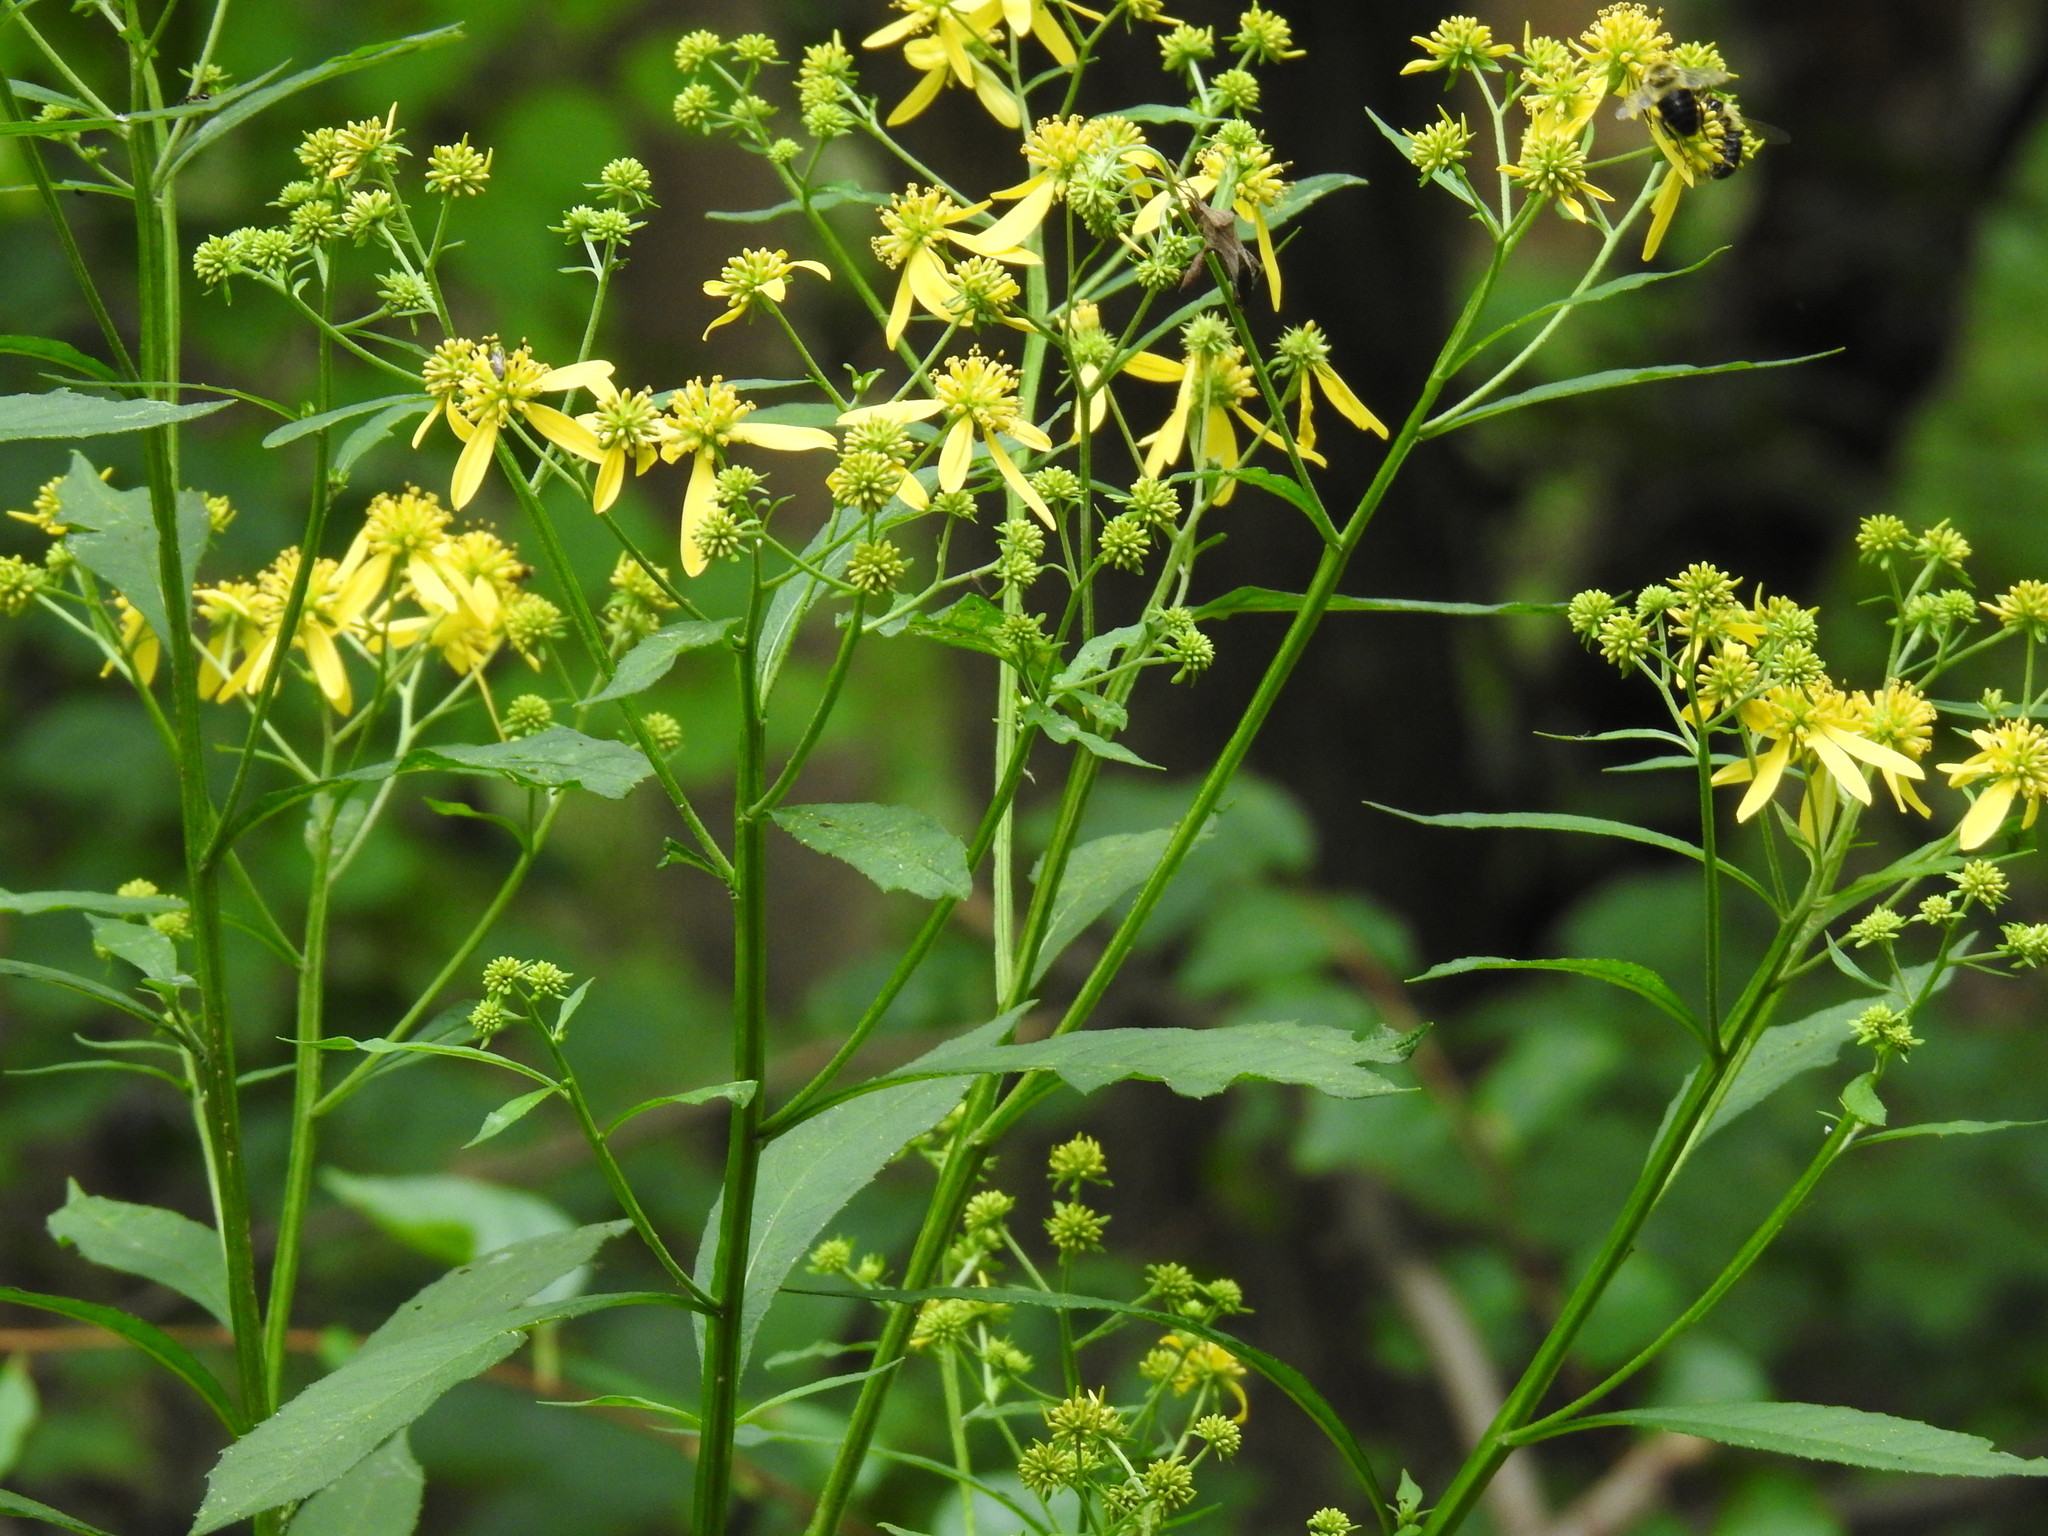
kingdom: Plantae
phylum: Tracheophyta
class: Magnoliopsida
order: Asterales
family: Asteraceae
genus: Verbesina
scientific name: Verbesina alternifolia
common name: Wingstem
